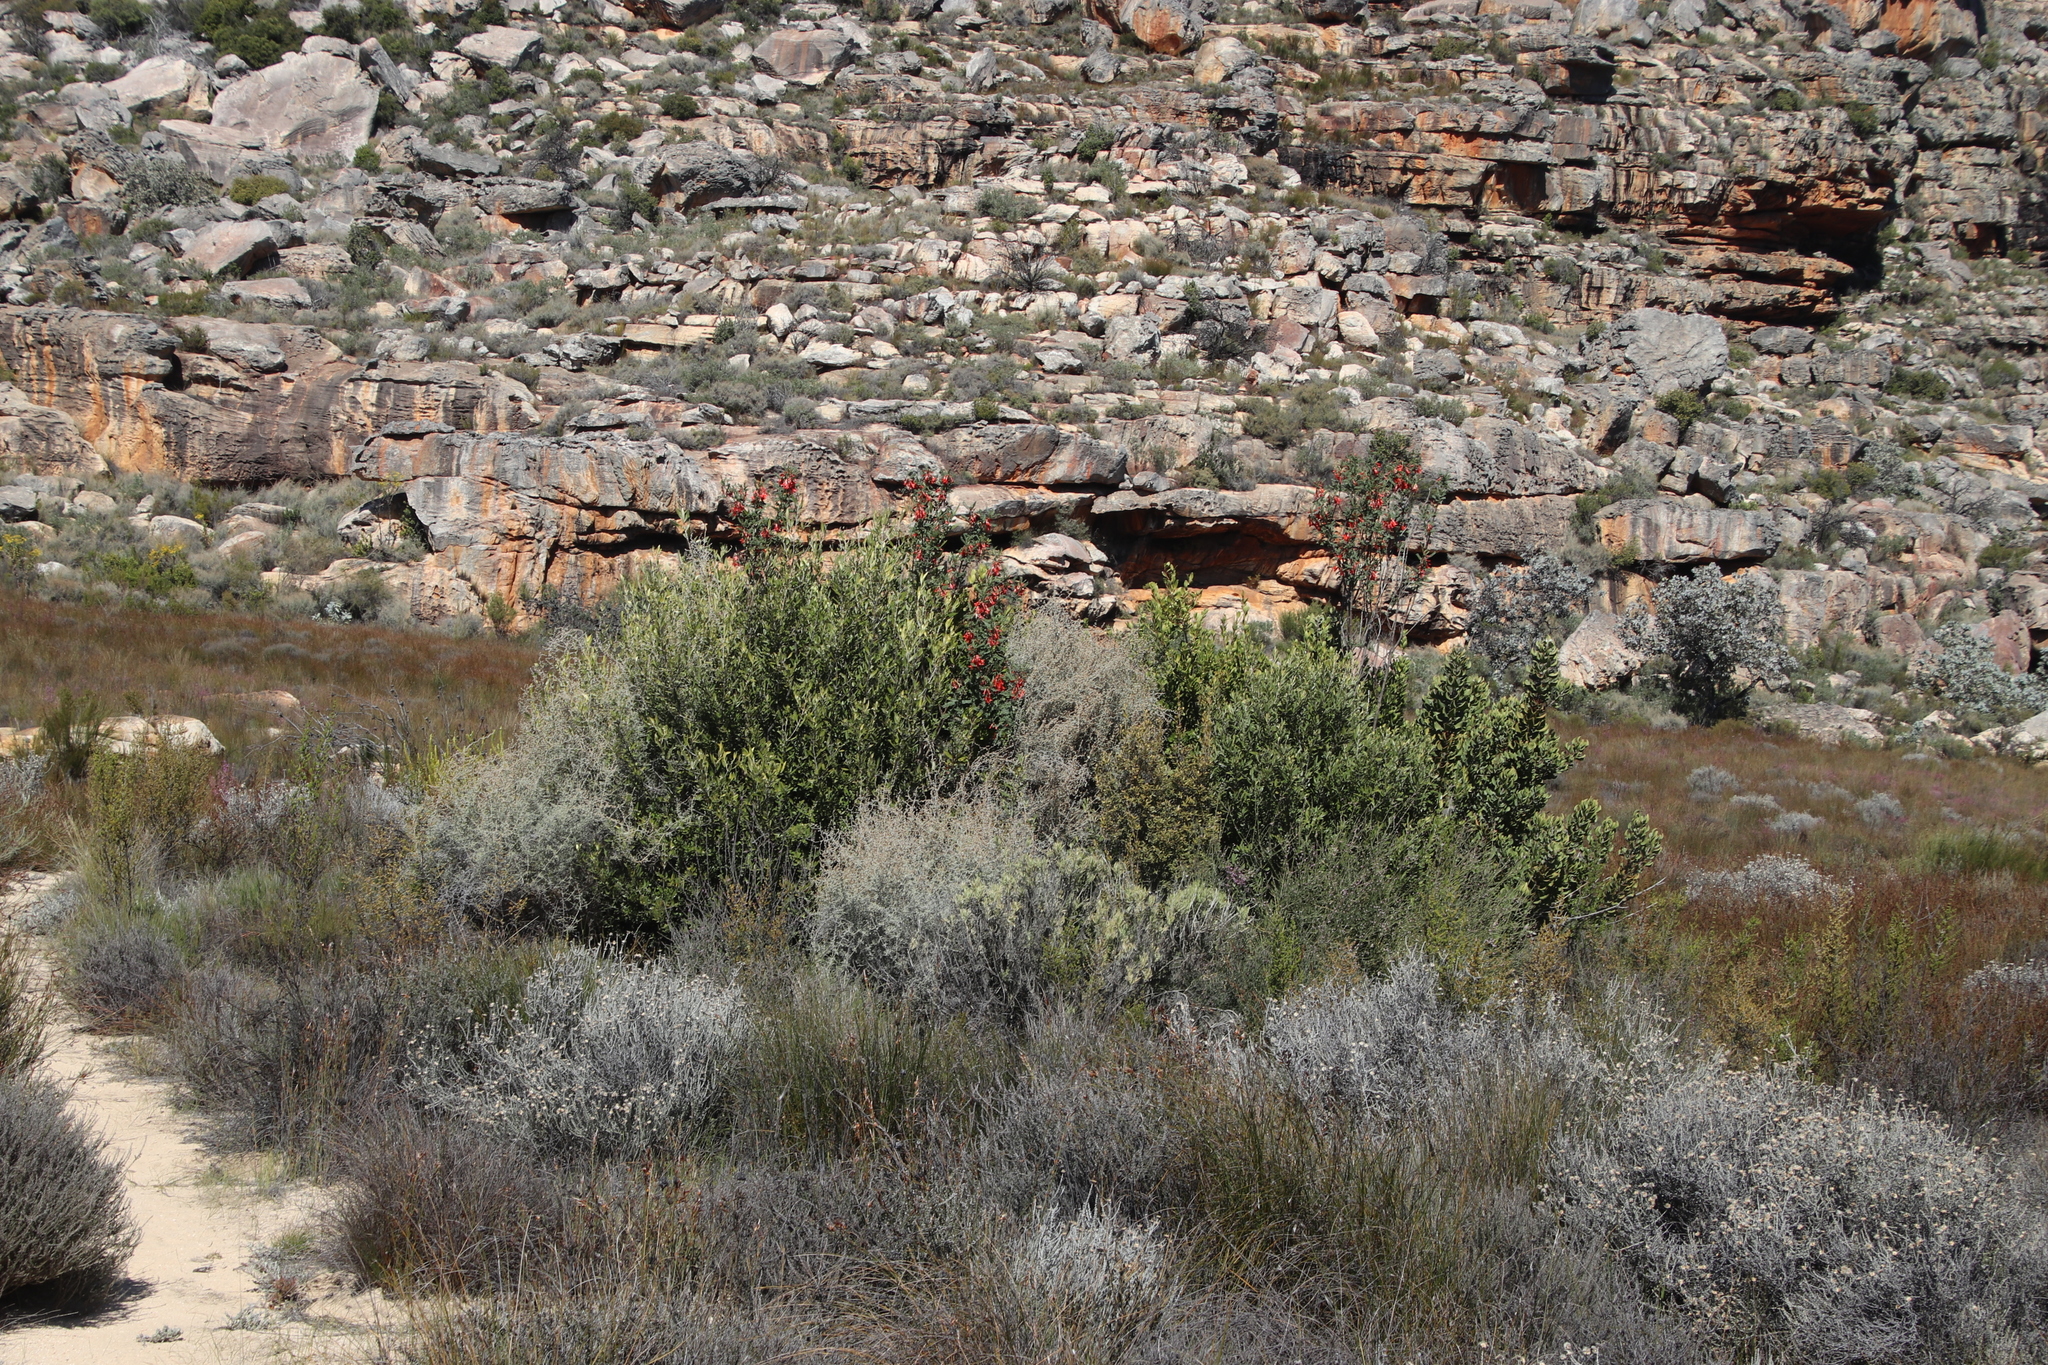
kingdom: Plantae
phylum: Tracheophyta
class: Magnoliopsida
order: Fabales
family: Fabaceae
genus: Lessertia
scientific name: Lessertia frutescens
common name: Balloon-pea
